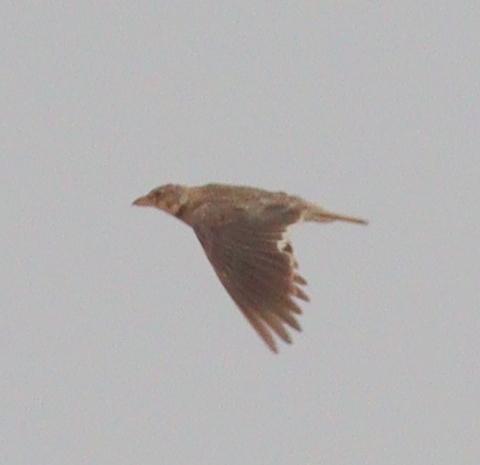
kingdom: Animalia
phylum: Chordata
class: Aves
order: Passeriformes
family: Alaudidae
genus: Melanocorypha
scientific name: Melanocorypha calandra
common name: Calandra lark
